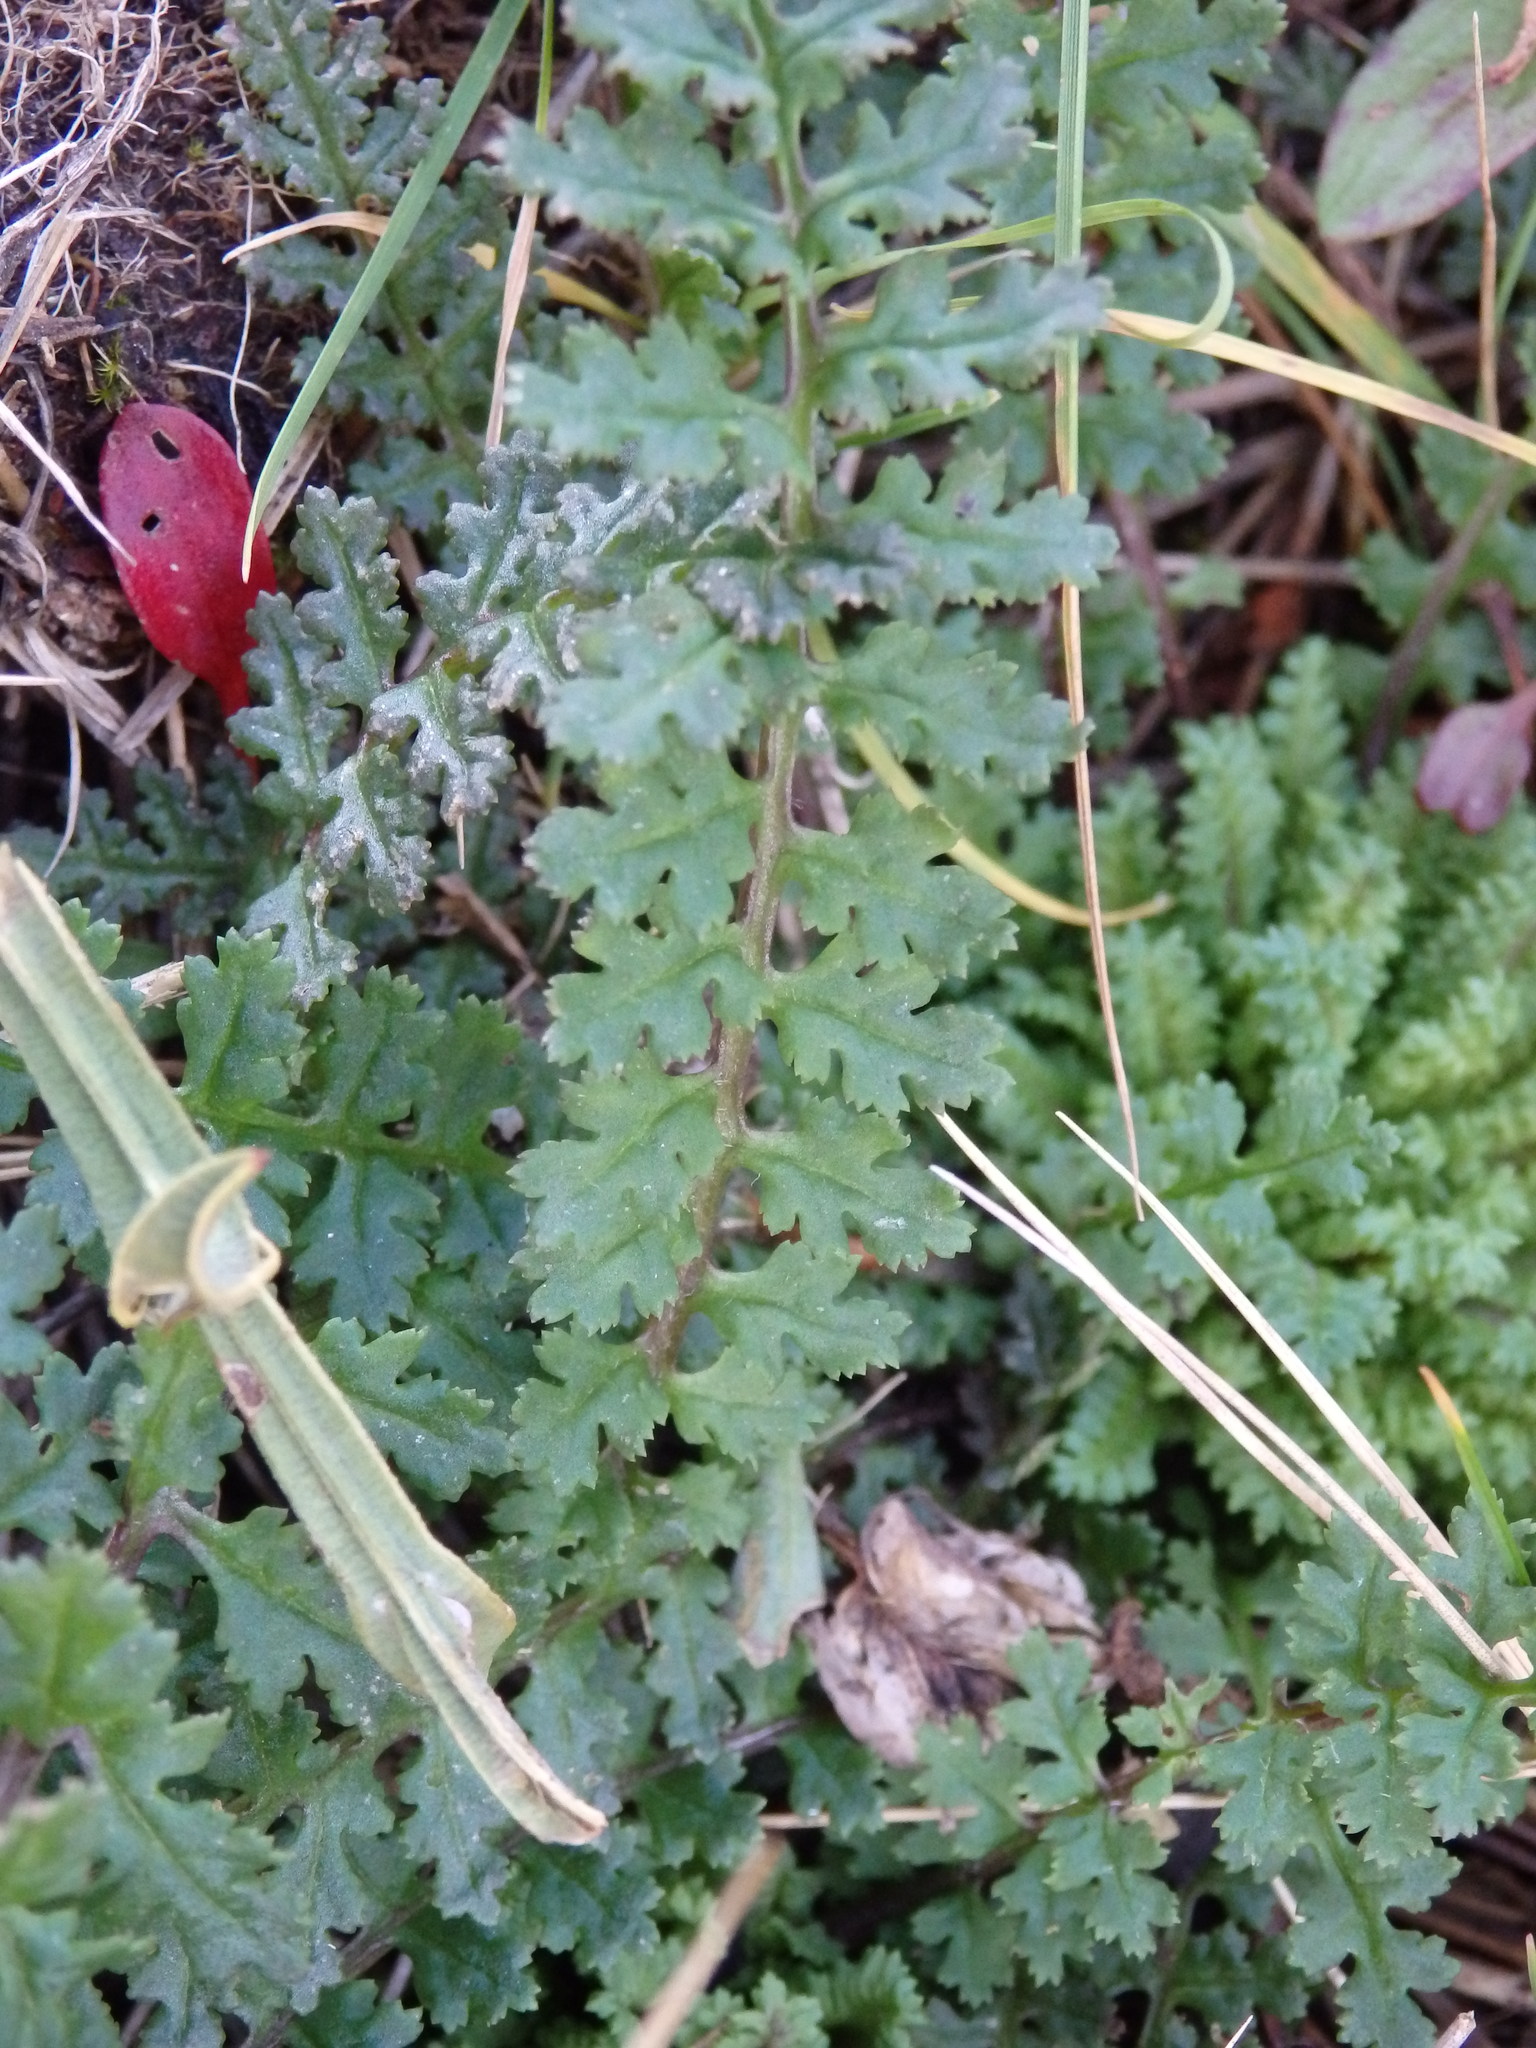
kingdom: Plantae
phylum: Tracheophyta
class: Magnoliopsida
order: Lamiales
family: Orobanchaceae
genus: Pedicularis
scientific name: Pedicularis sylvatica
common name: Lousewort
